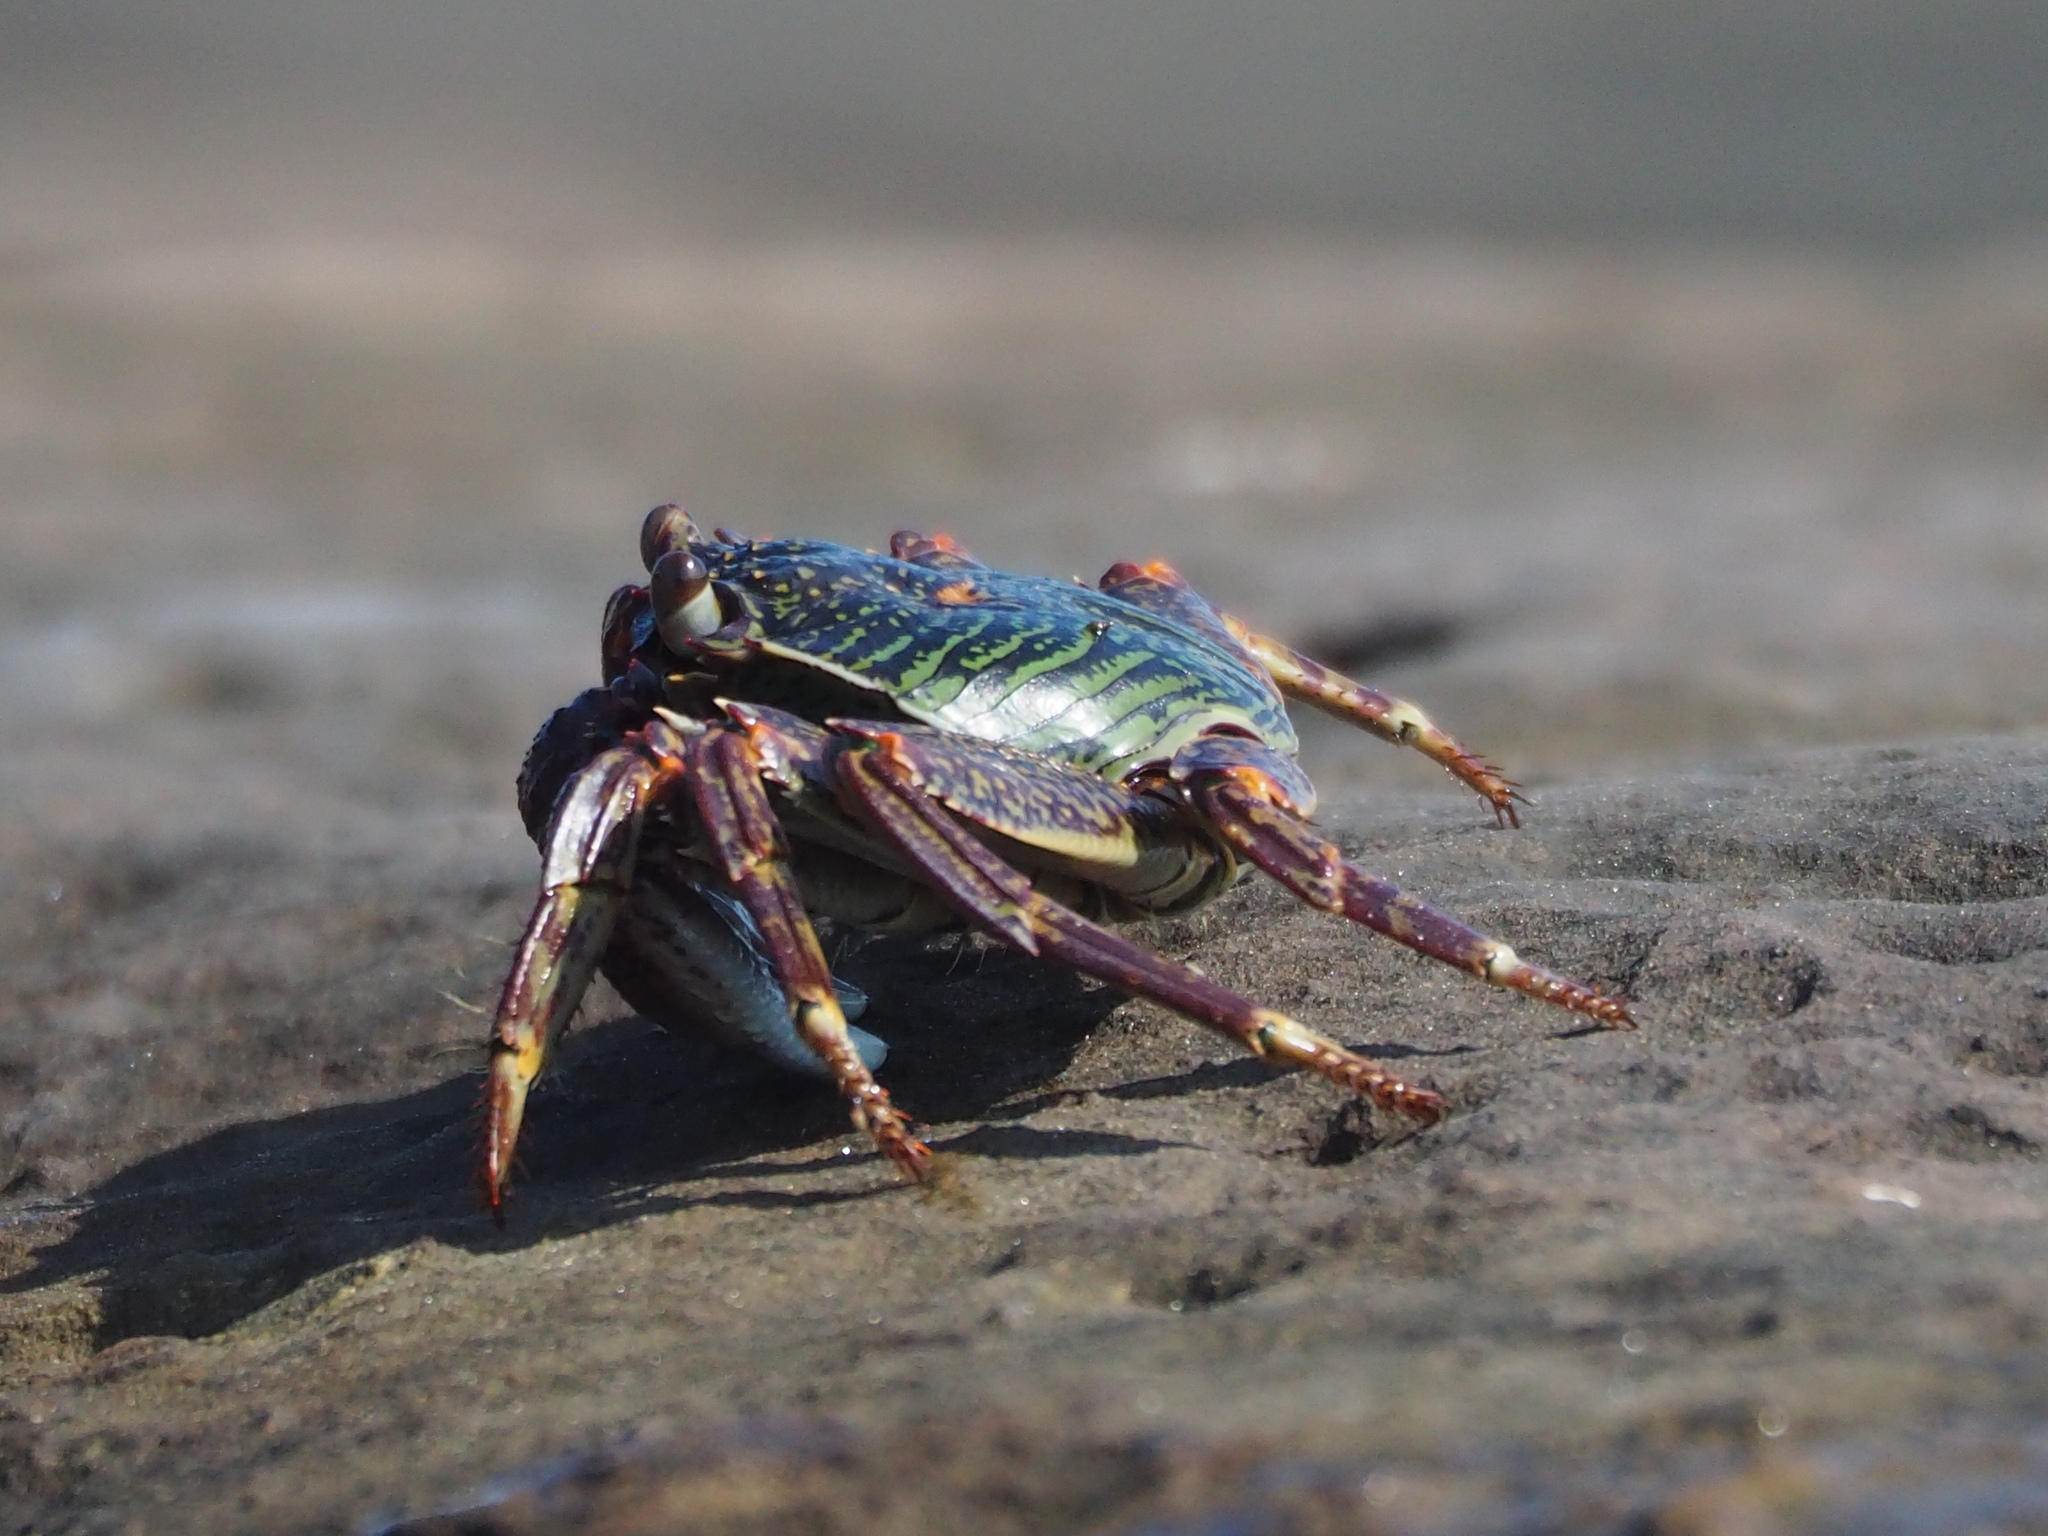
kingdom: Animalia
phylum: Arthropoda
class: Malacostraca
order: Decapoda
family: Grapsidae
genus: Grapsus
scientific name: Grapsus albolineatus
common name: Mottled lightfoot crab
